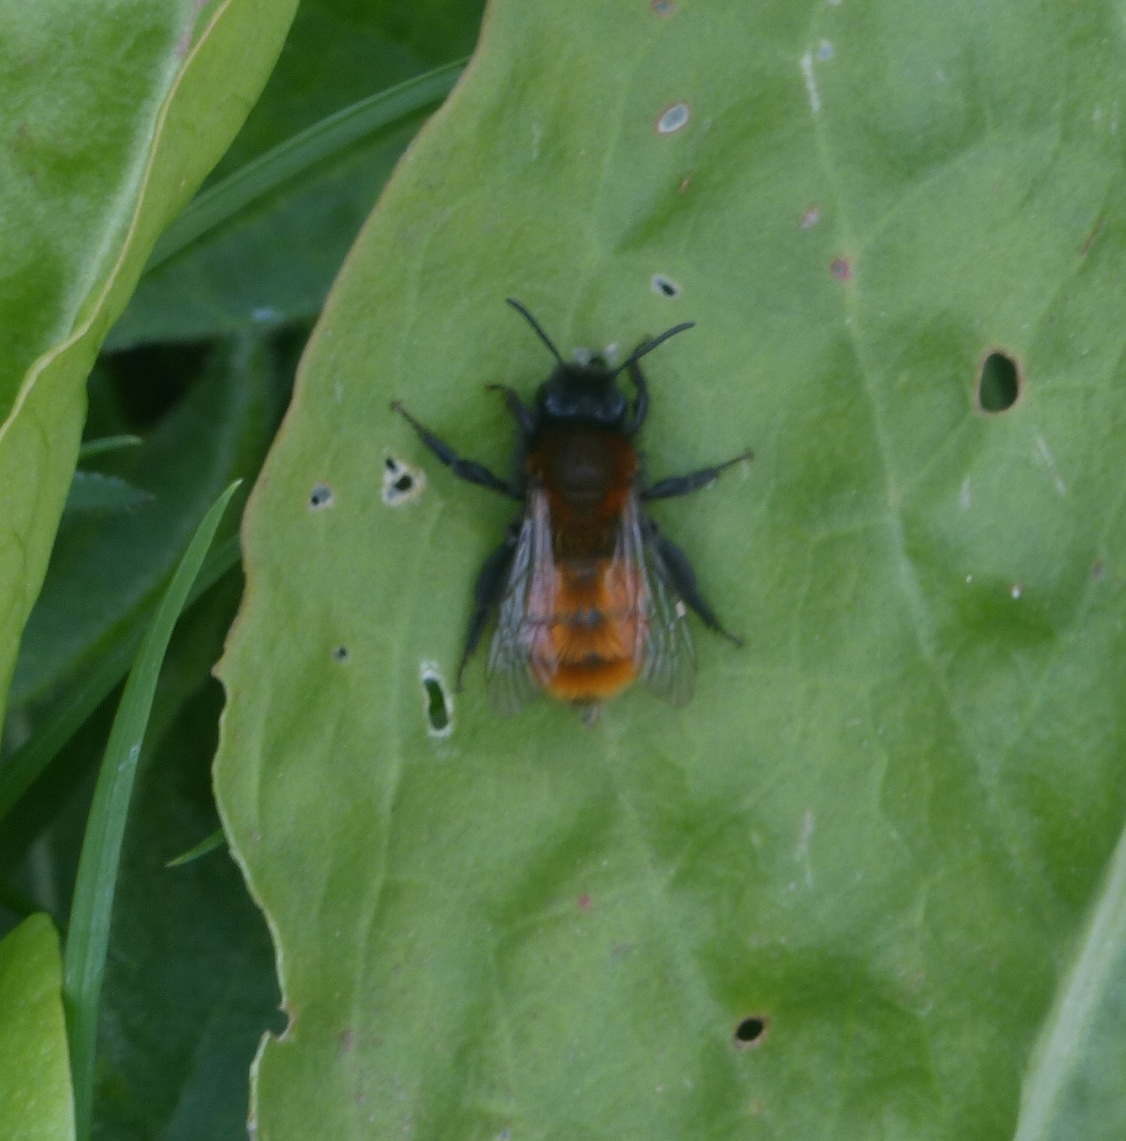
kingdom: Animalia
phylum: Arthropoda
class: Insecta
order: Hymenoptera
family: Andrenidae
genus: Andrena
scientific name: Andrena fulva
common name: Tawny mining bee
